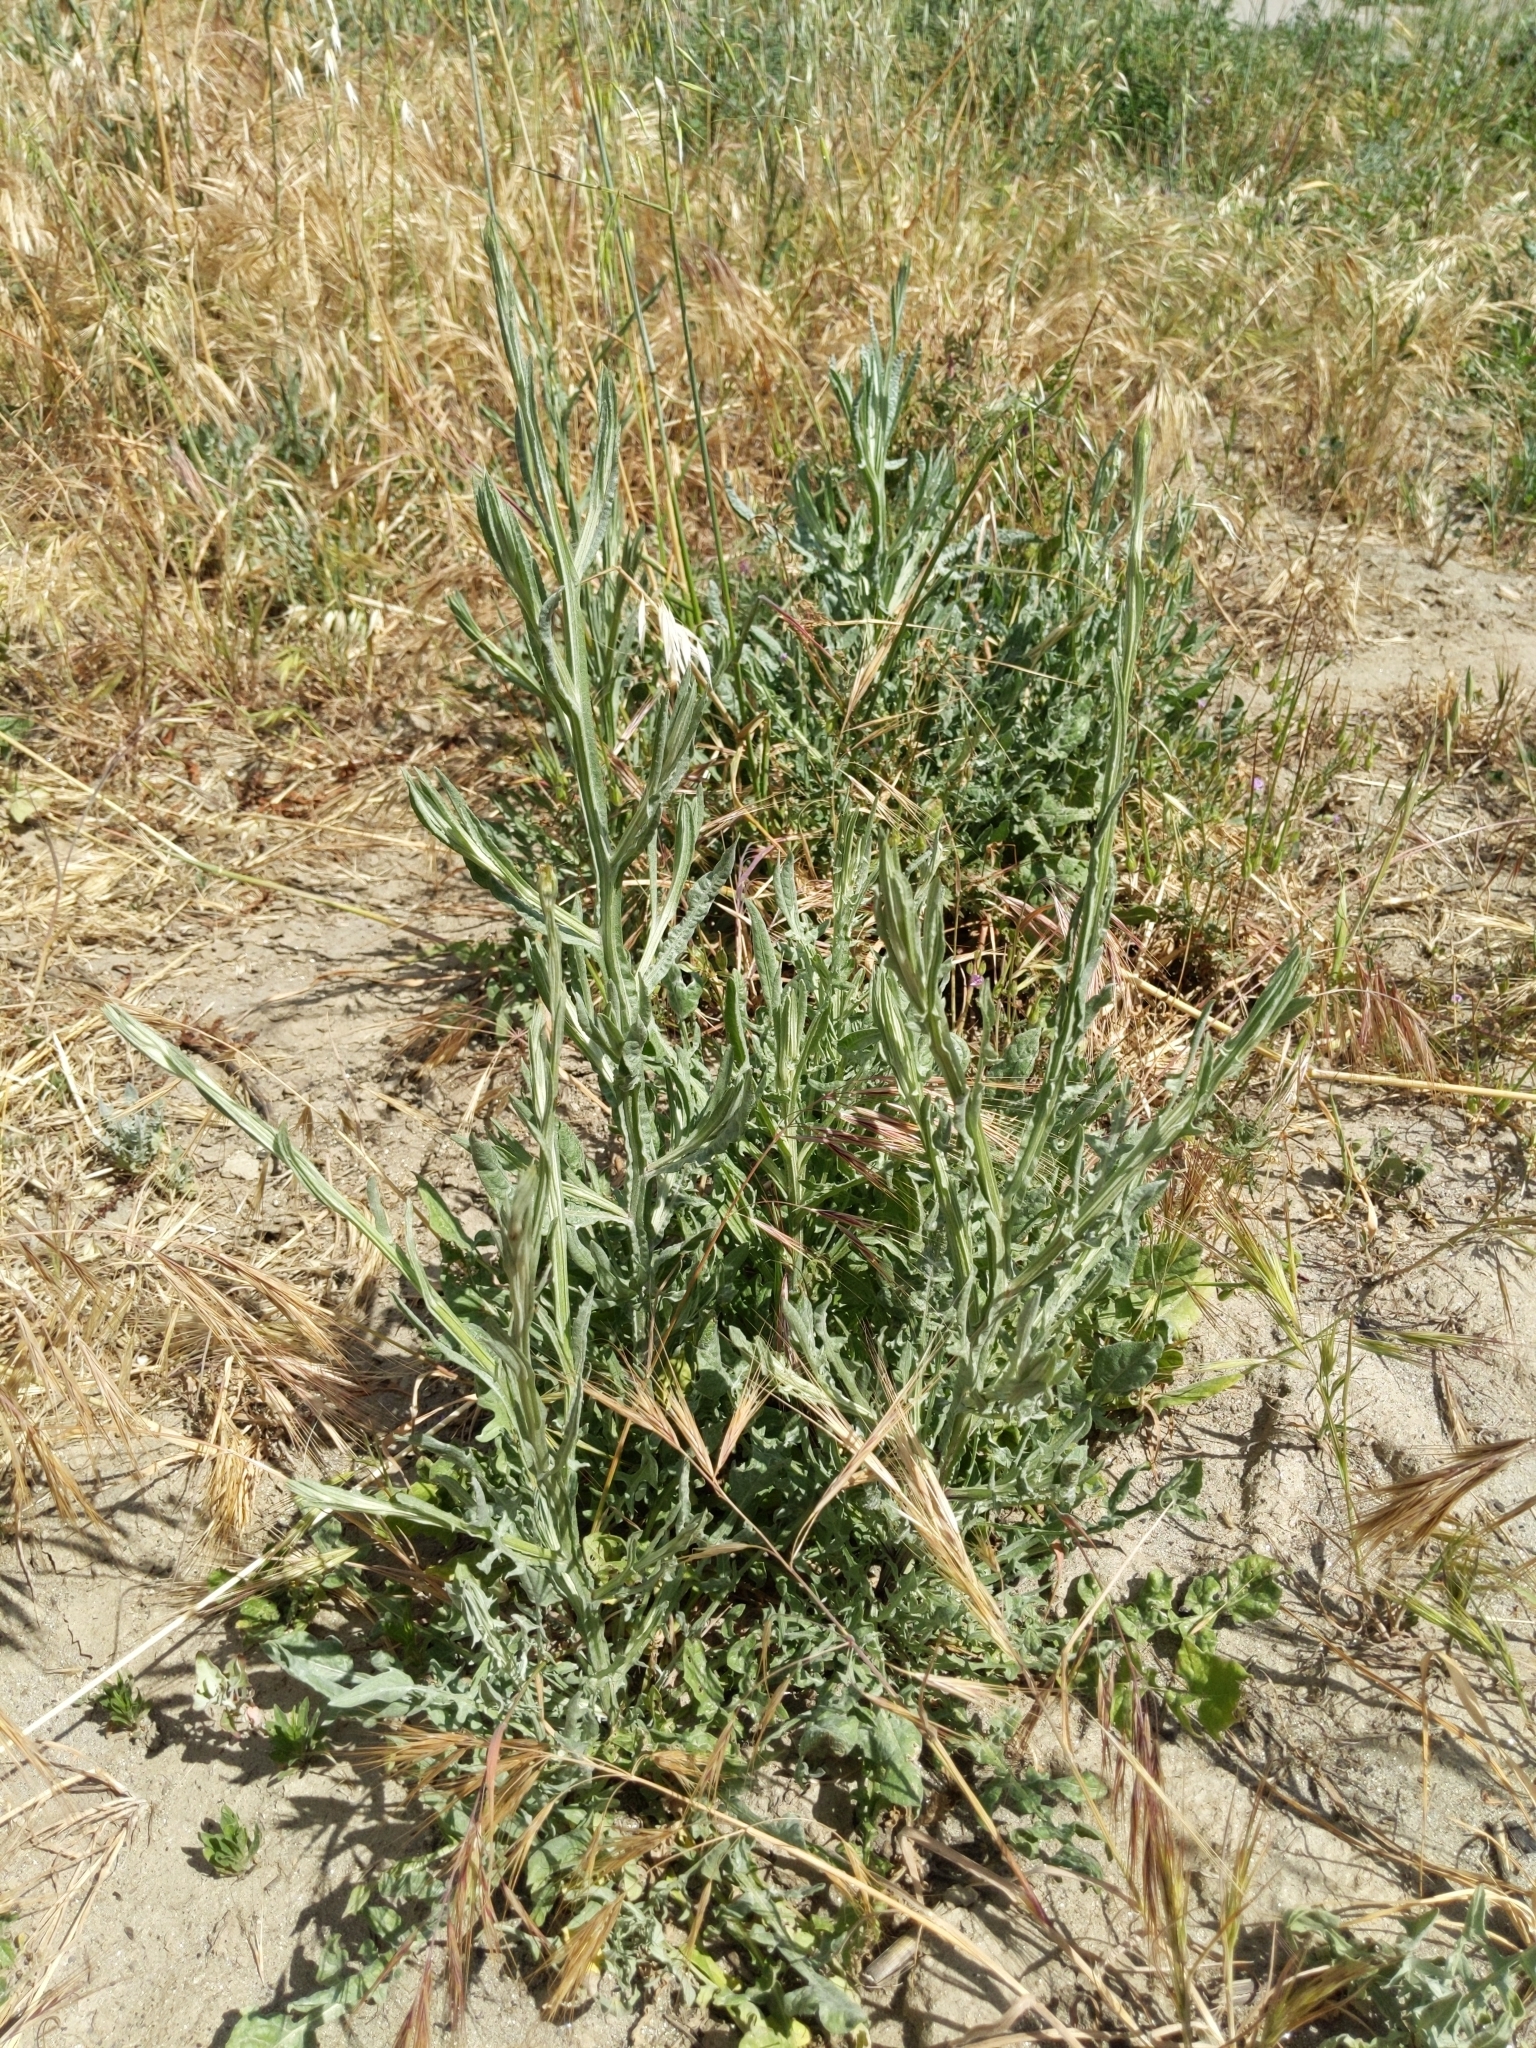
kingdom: Plantae
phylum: Tracheophyta
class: Magnoliopsida
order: Asterales
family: Asteraceae
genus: Centaurea
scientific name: Centaurea solstitialis
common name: Yellow star-thistle
